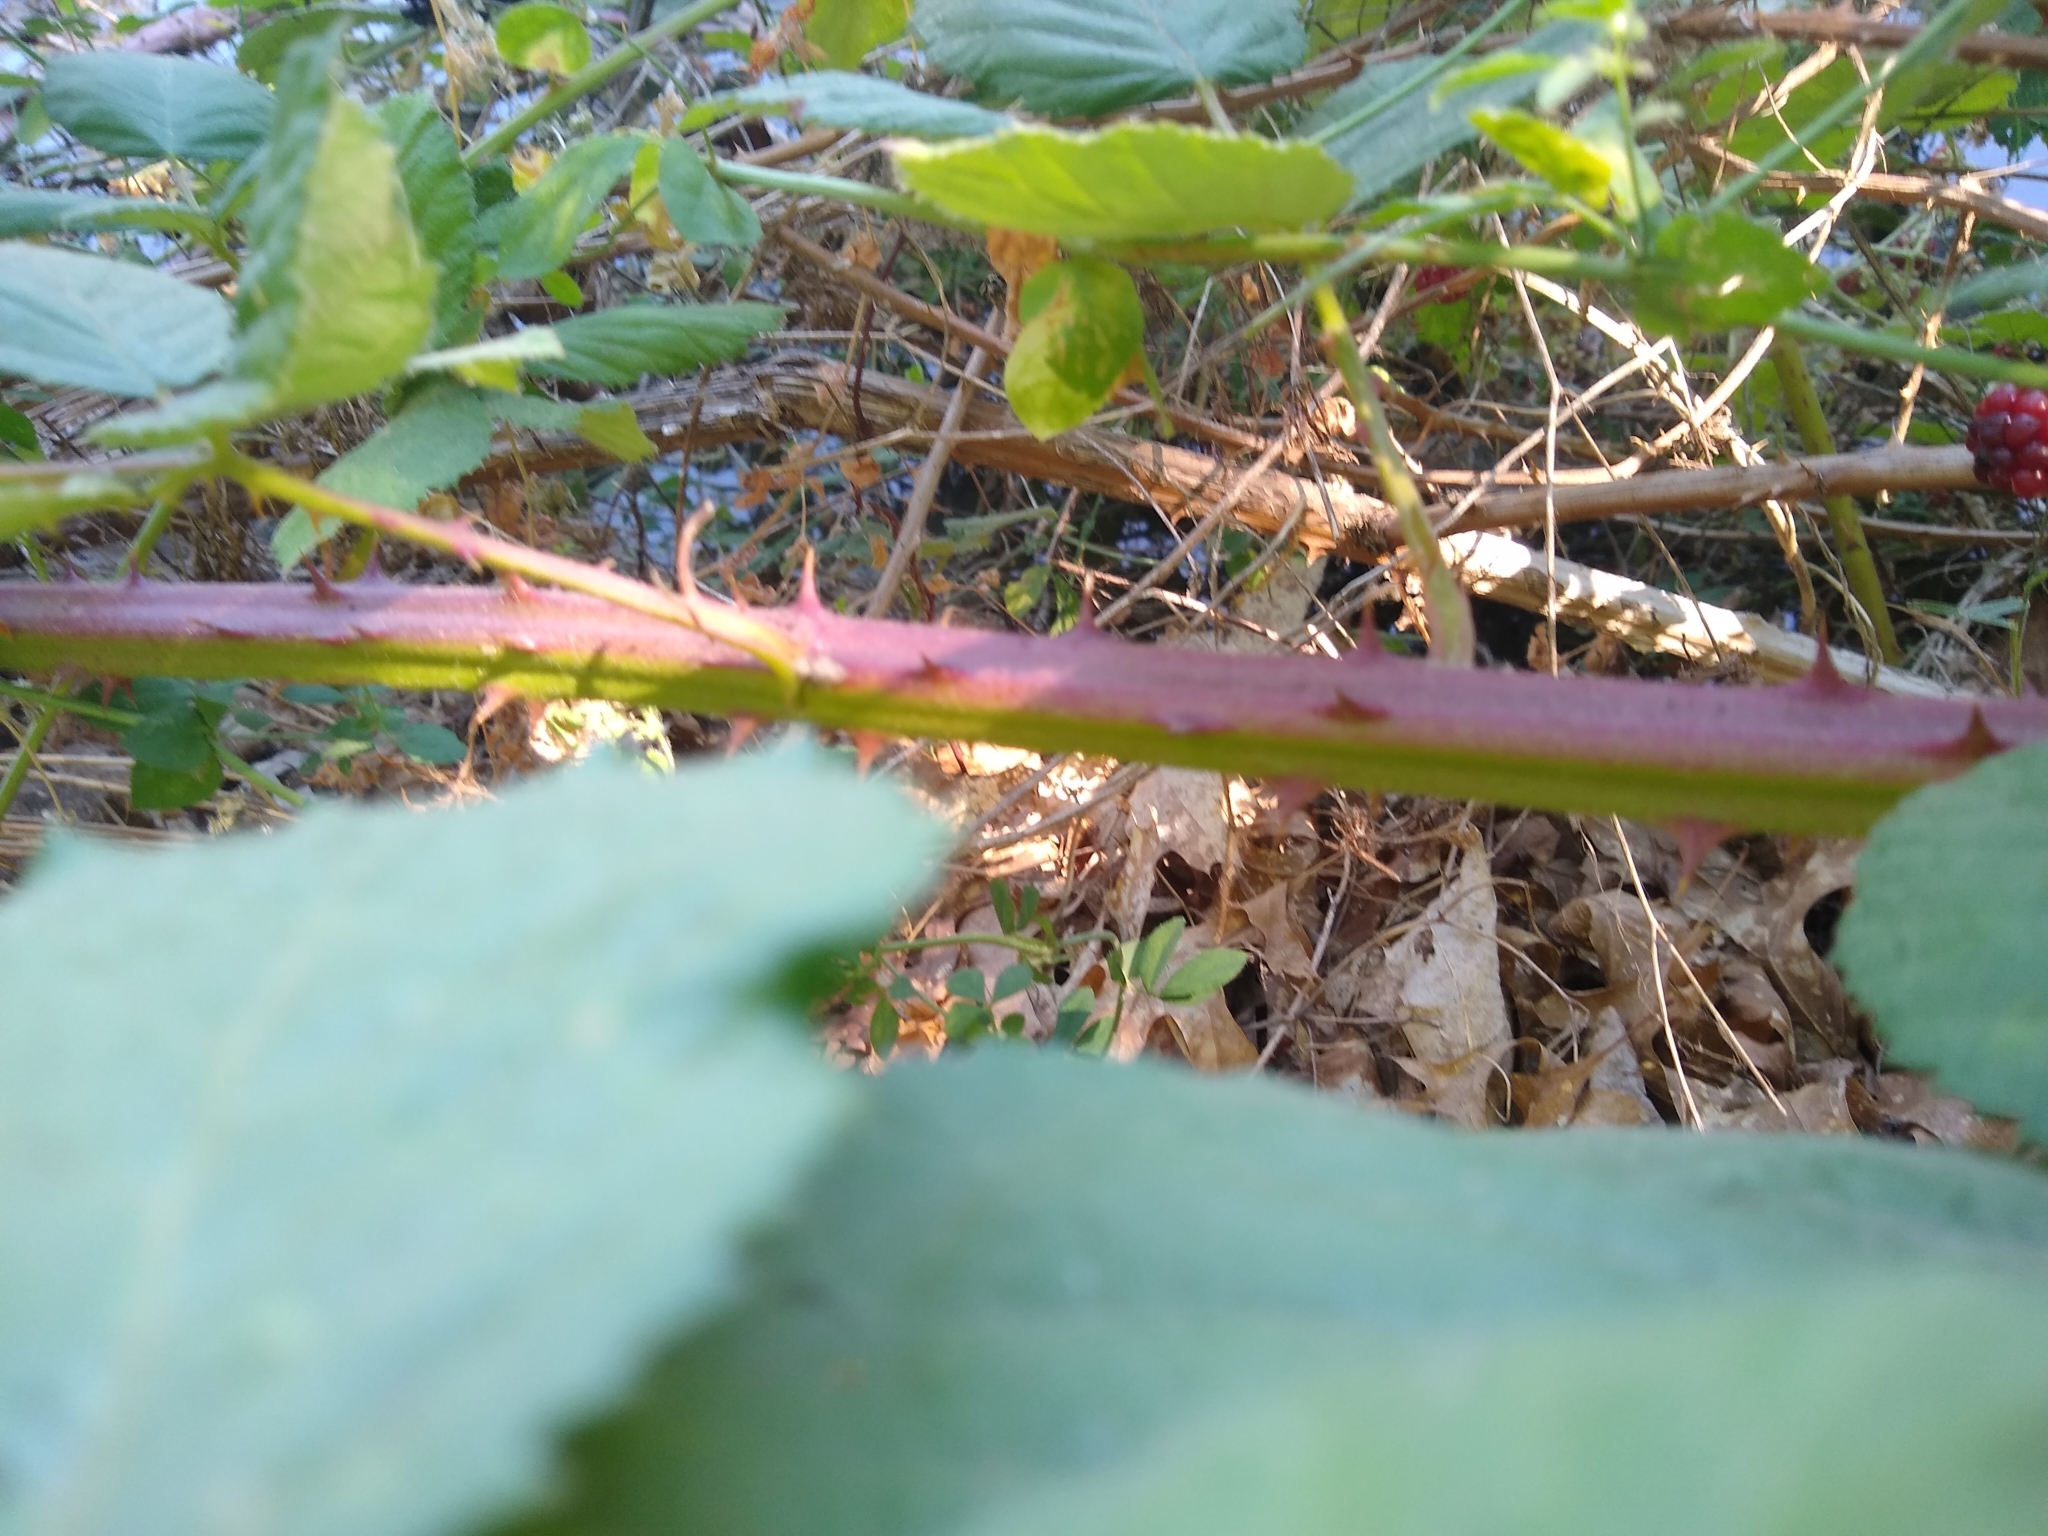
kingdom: Plantae
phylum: Tracheophyta
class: Magnoliopsida
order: Rosales
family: Rosaceae
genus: Rubus
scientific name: Rubus bifrons
